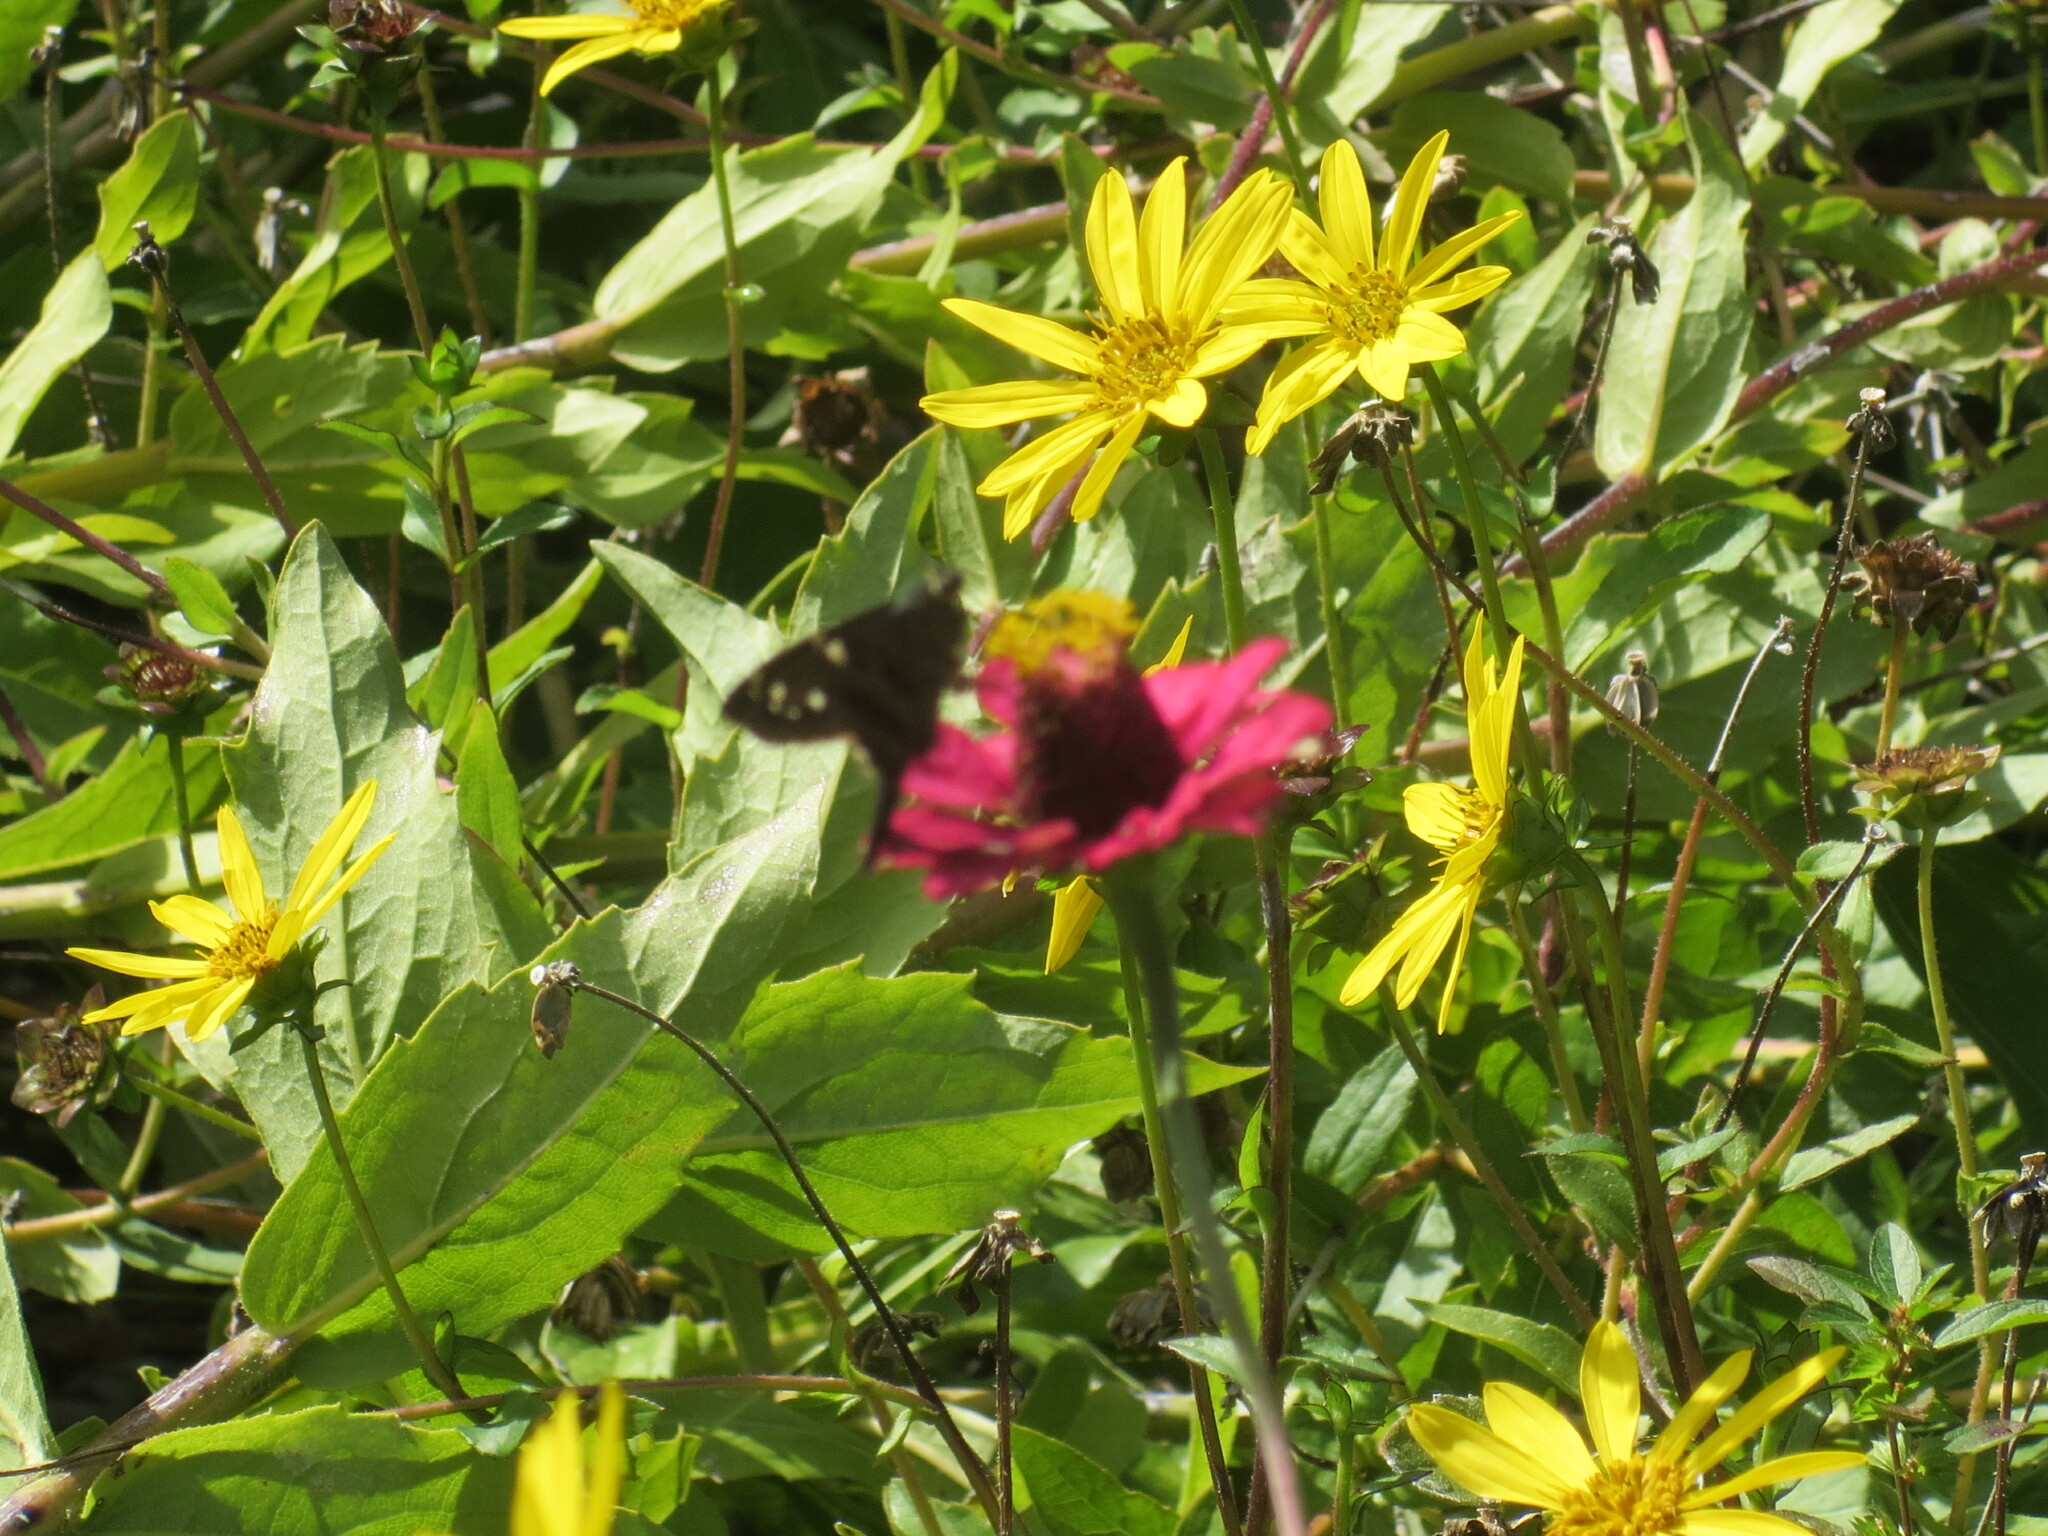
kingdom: Animalia
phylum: Arthropoda
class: Insecta
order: Lepidoptera
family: Hesperiidae
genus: Urbanus
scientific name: Urbanus proteus
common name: Long-tailed skipper
